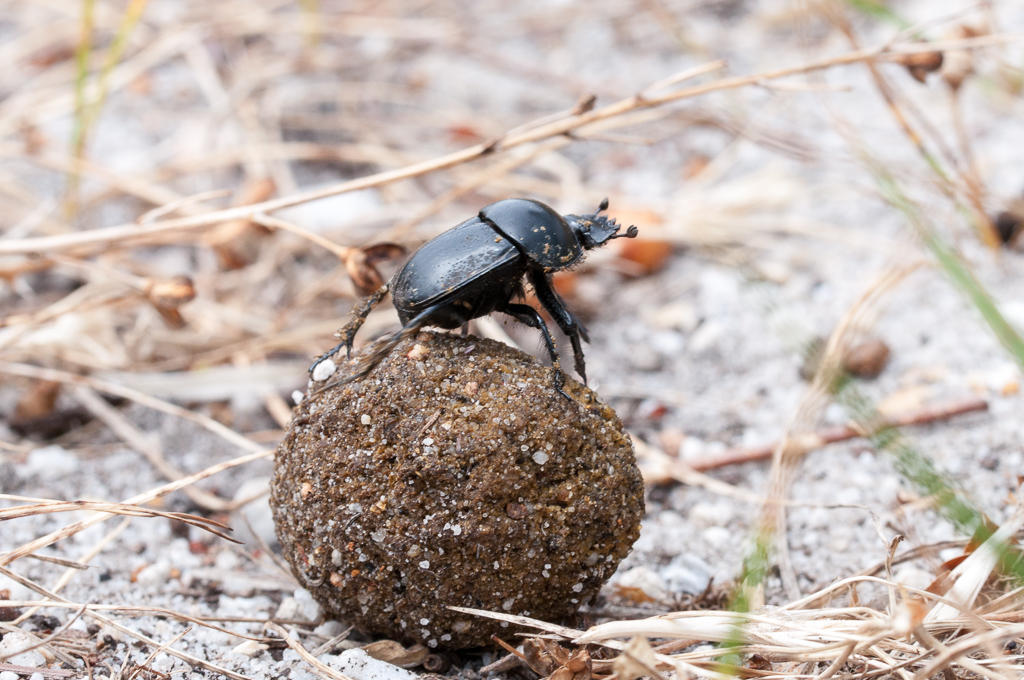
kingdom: Animalia
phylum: Arthropoda
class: Insecta
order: Coleoptera
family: Scarabaeidae
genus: Scarabaeus
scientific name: Scarabaeus convexus
